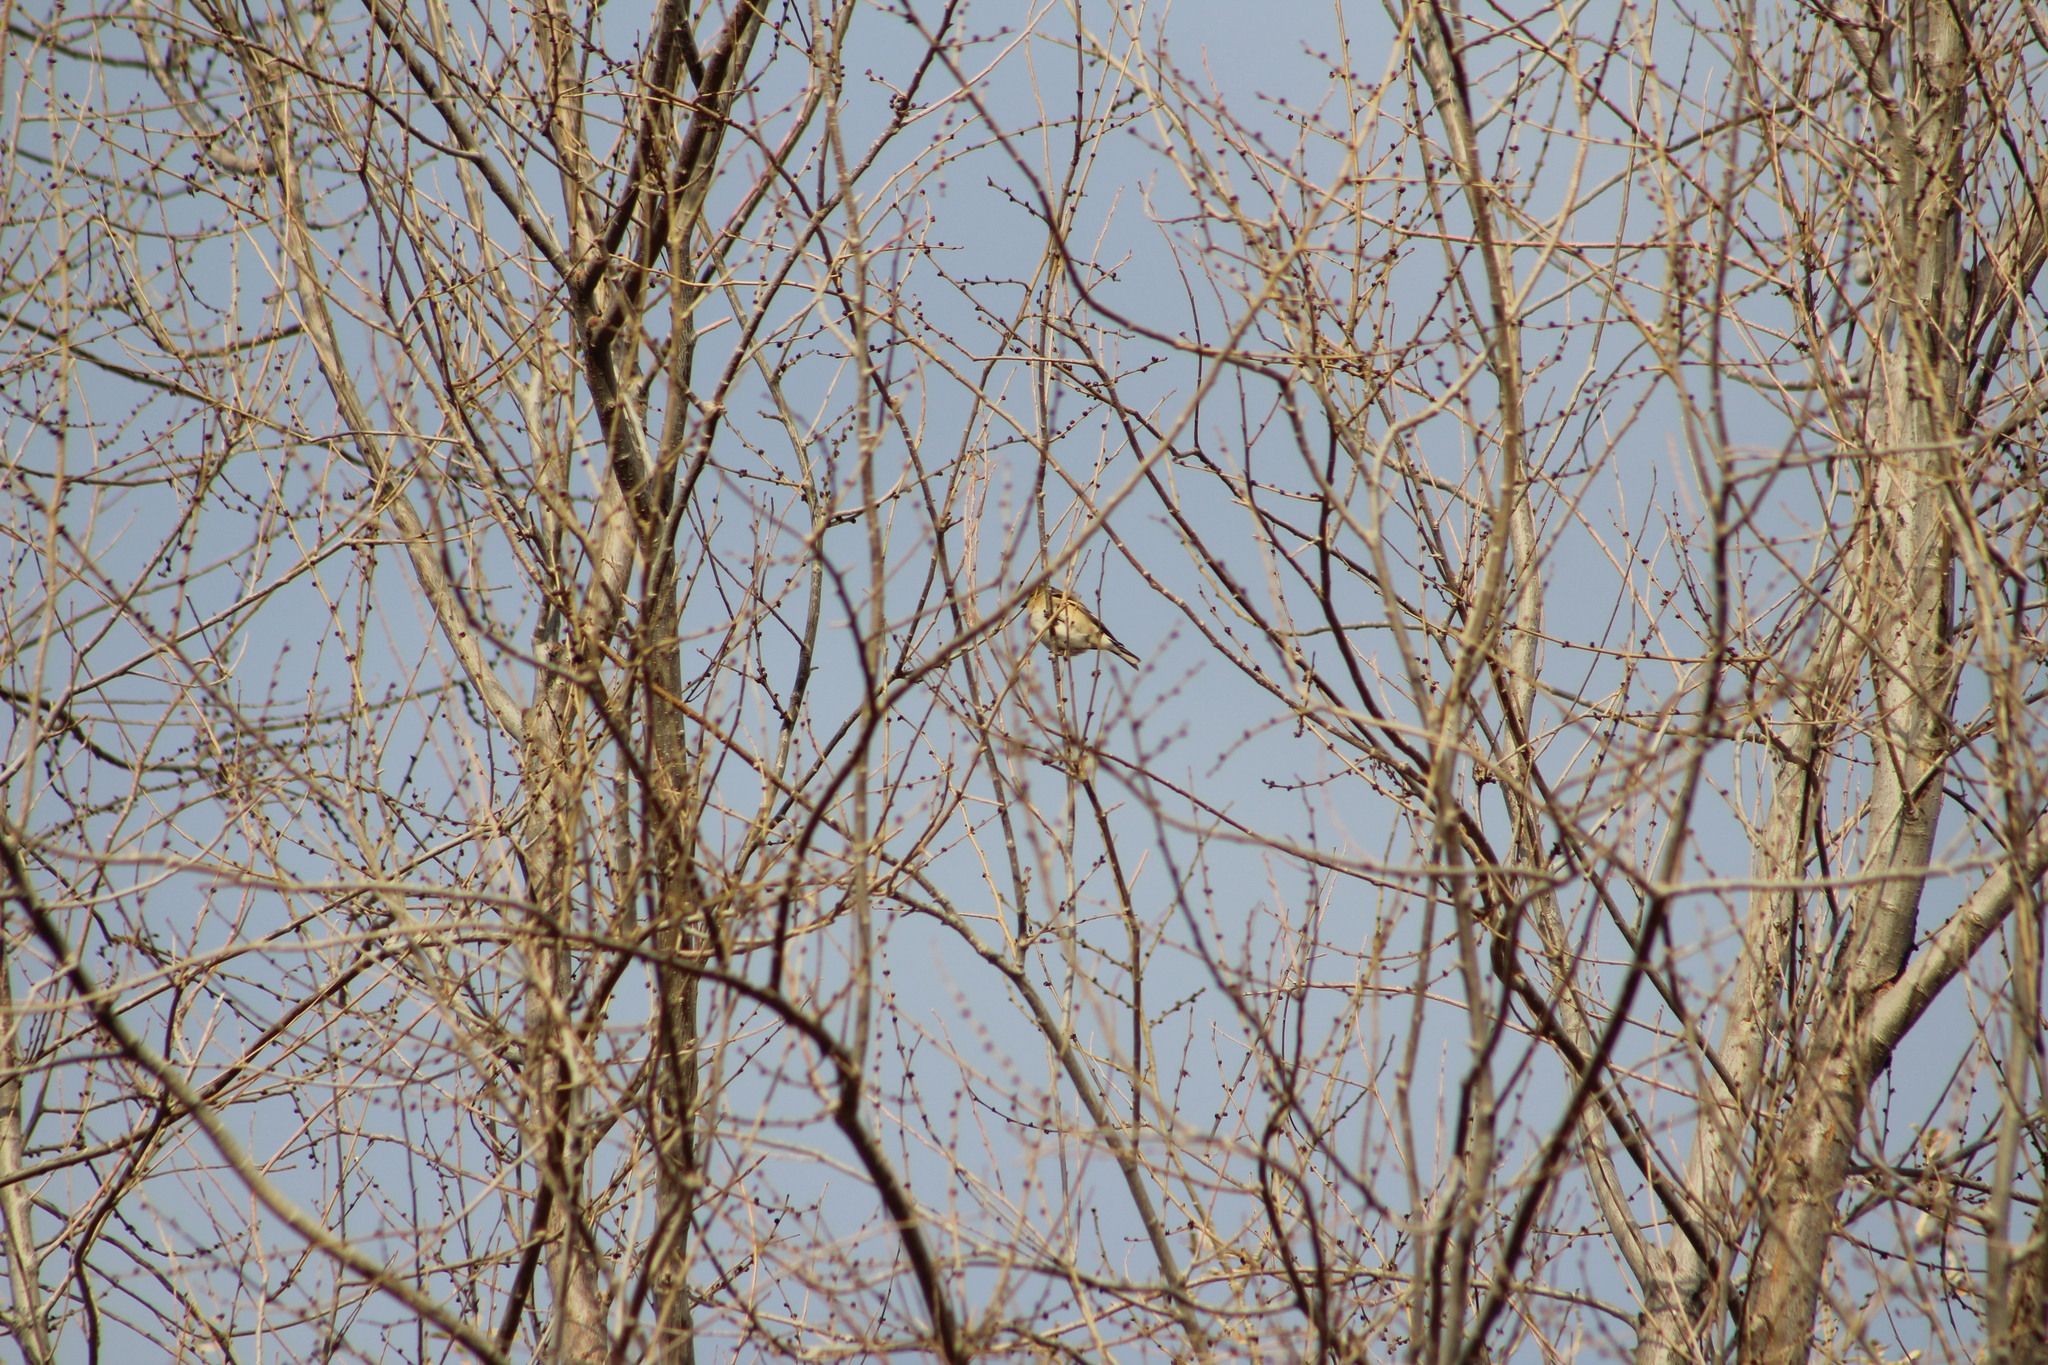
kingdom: Animalia
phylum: Chordata
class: Aves
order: Passeriformes
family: Fringillidae
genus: Spinus
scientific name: Spinus tristis
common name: American goldfinch
